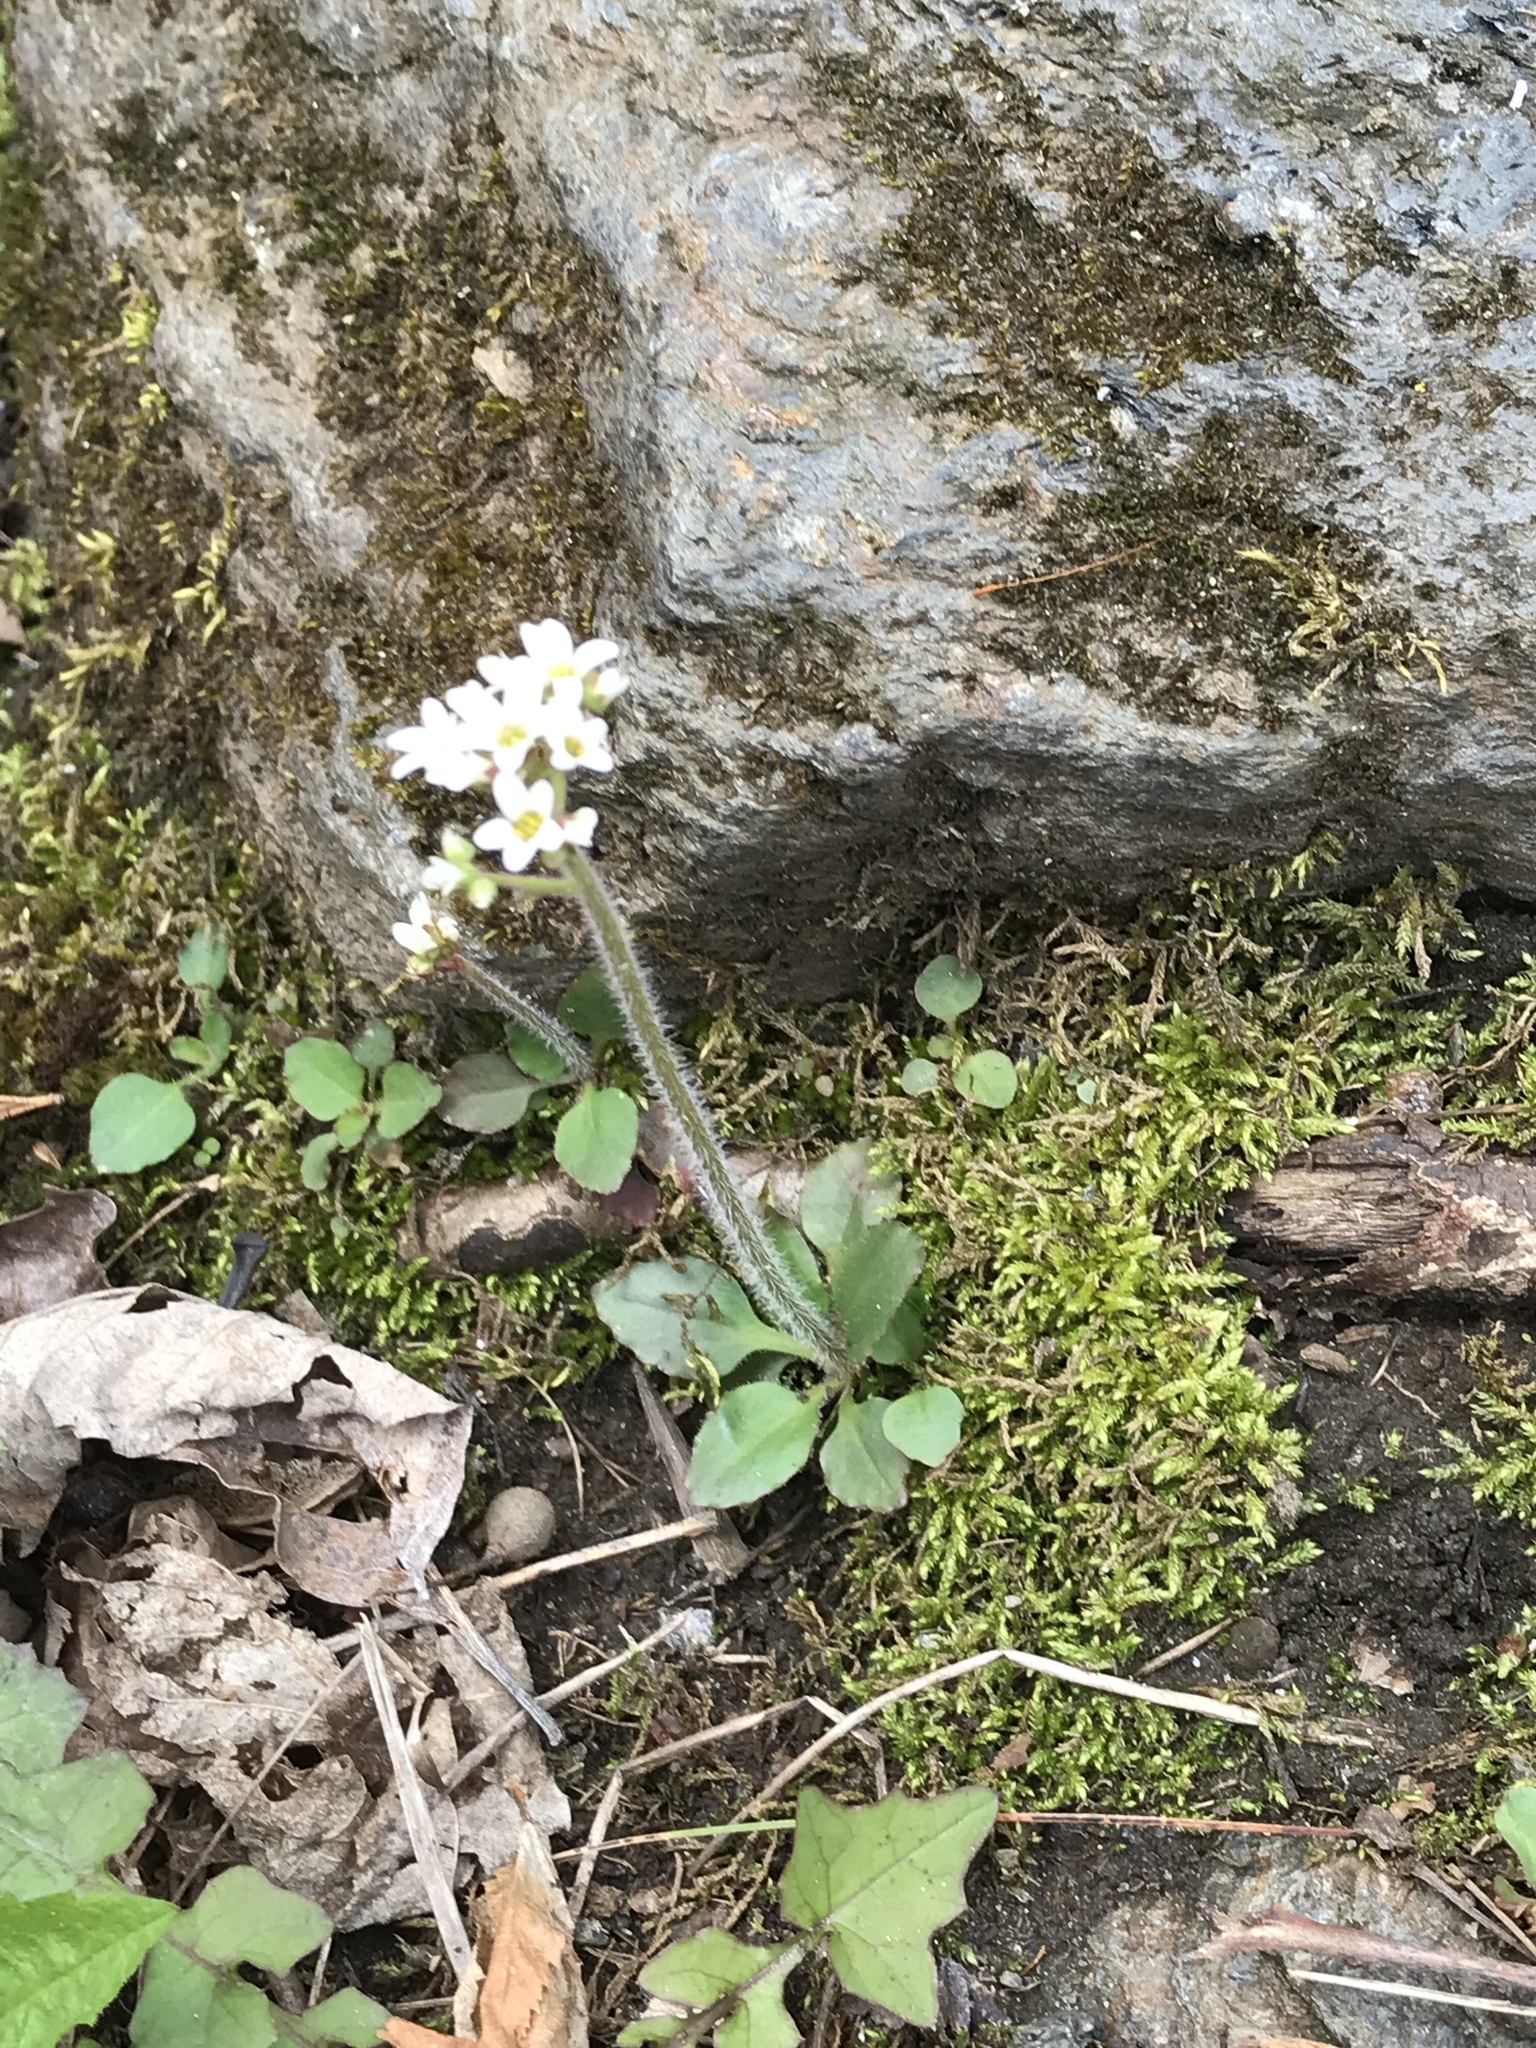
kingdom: Plantae
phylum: Tracheophyta
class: Magnoliopsida
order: Saxifragales
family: Saxifragaceae
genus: Micranthes
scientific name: Micranthes virginiensis
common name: Early saxifrage
